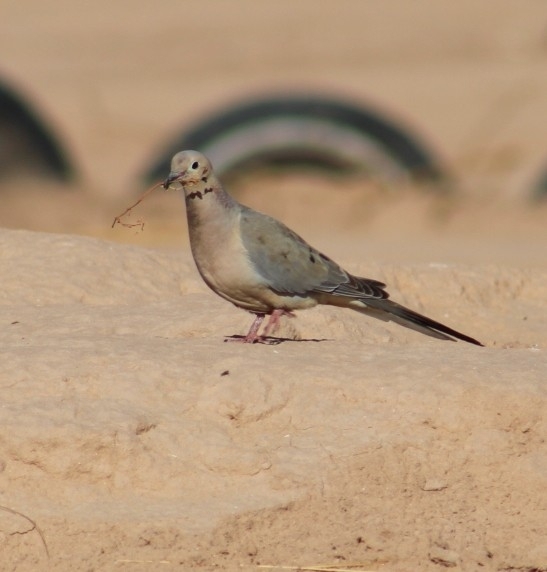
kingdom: Animalia
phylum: Chordata
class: Aves
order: Columbiformes
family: Columbidae
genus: Zenaida
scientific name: Zenaida macroura
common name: Mourning dove
